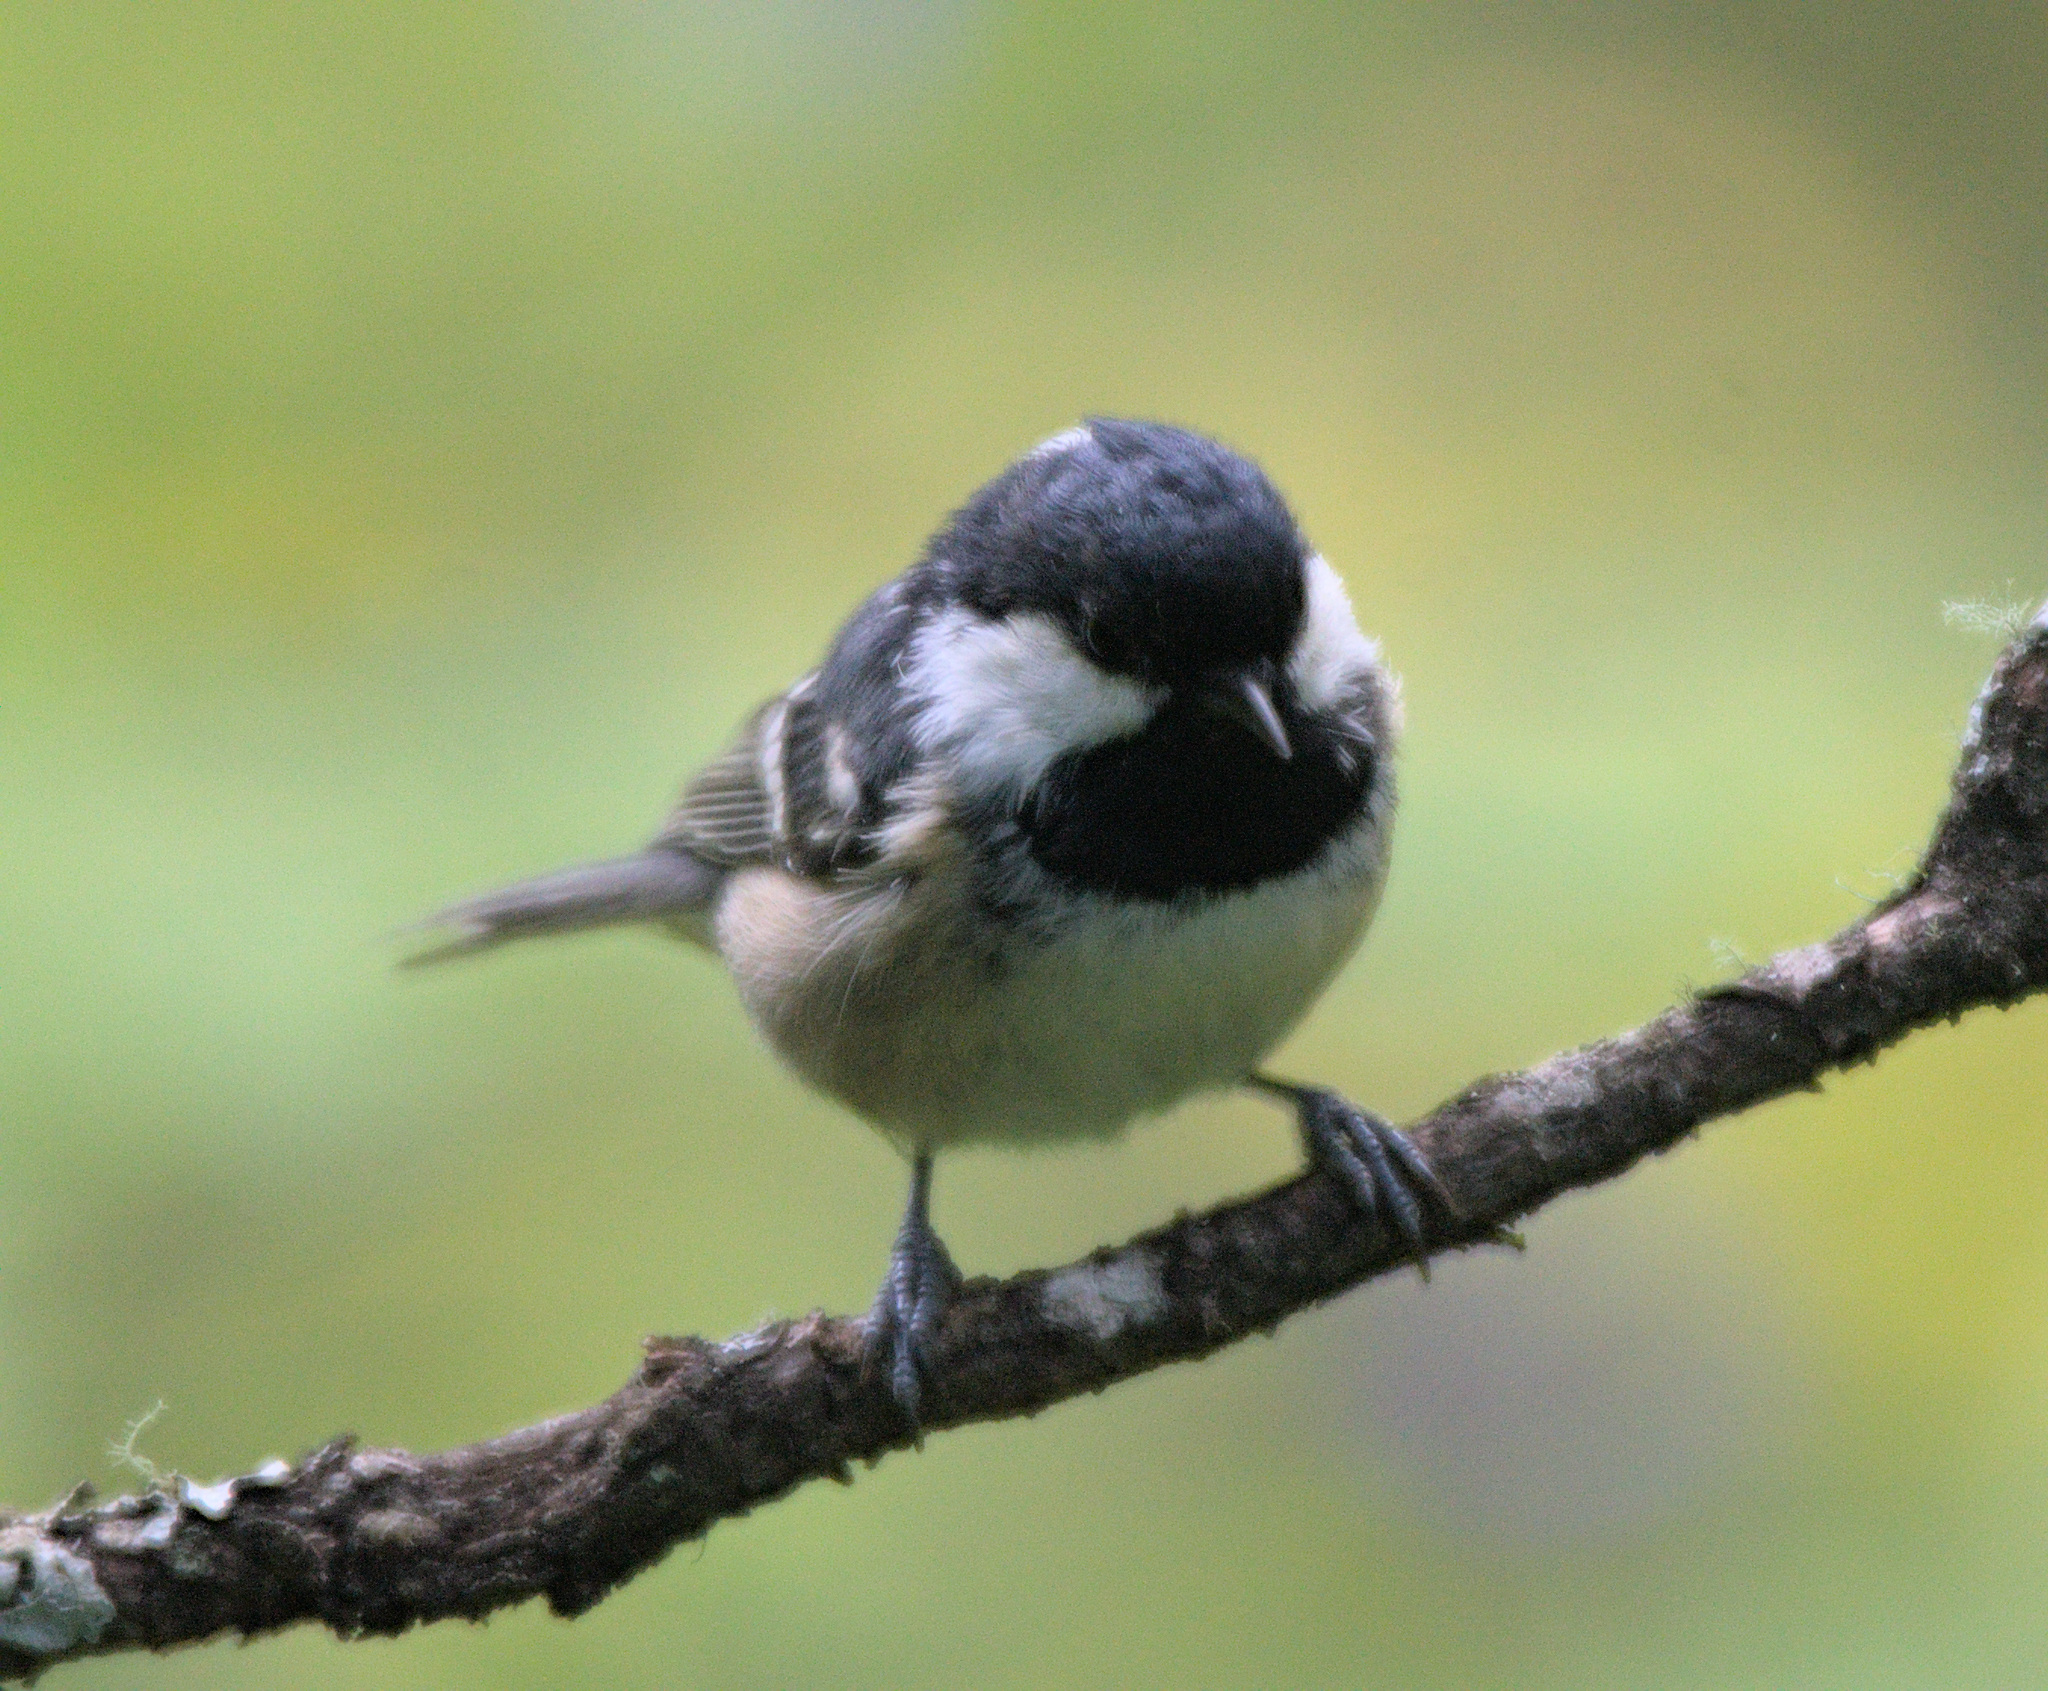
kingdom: Animalia
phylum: Chordata
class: Aves
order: Passeriformes
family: Paridae
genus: Periparus
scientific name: Periparus ater
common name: Coal tit
